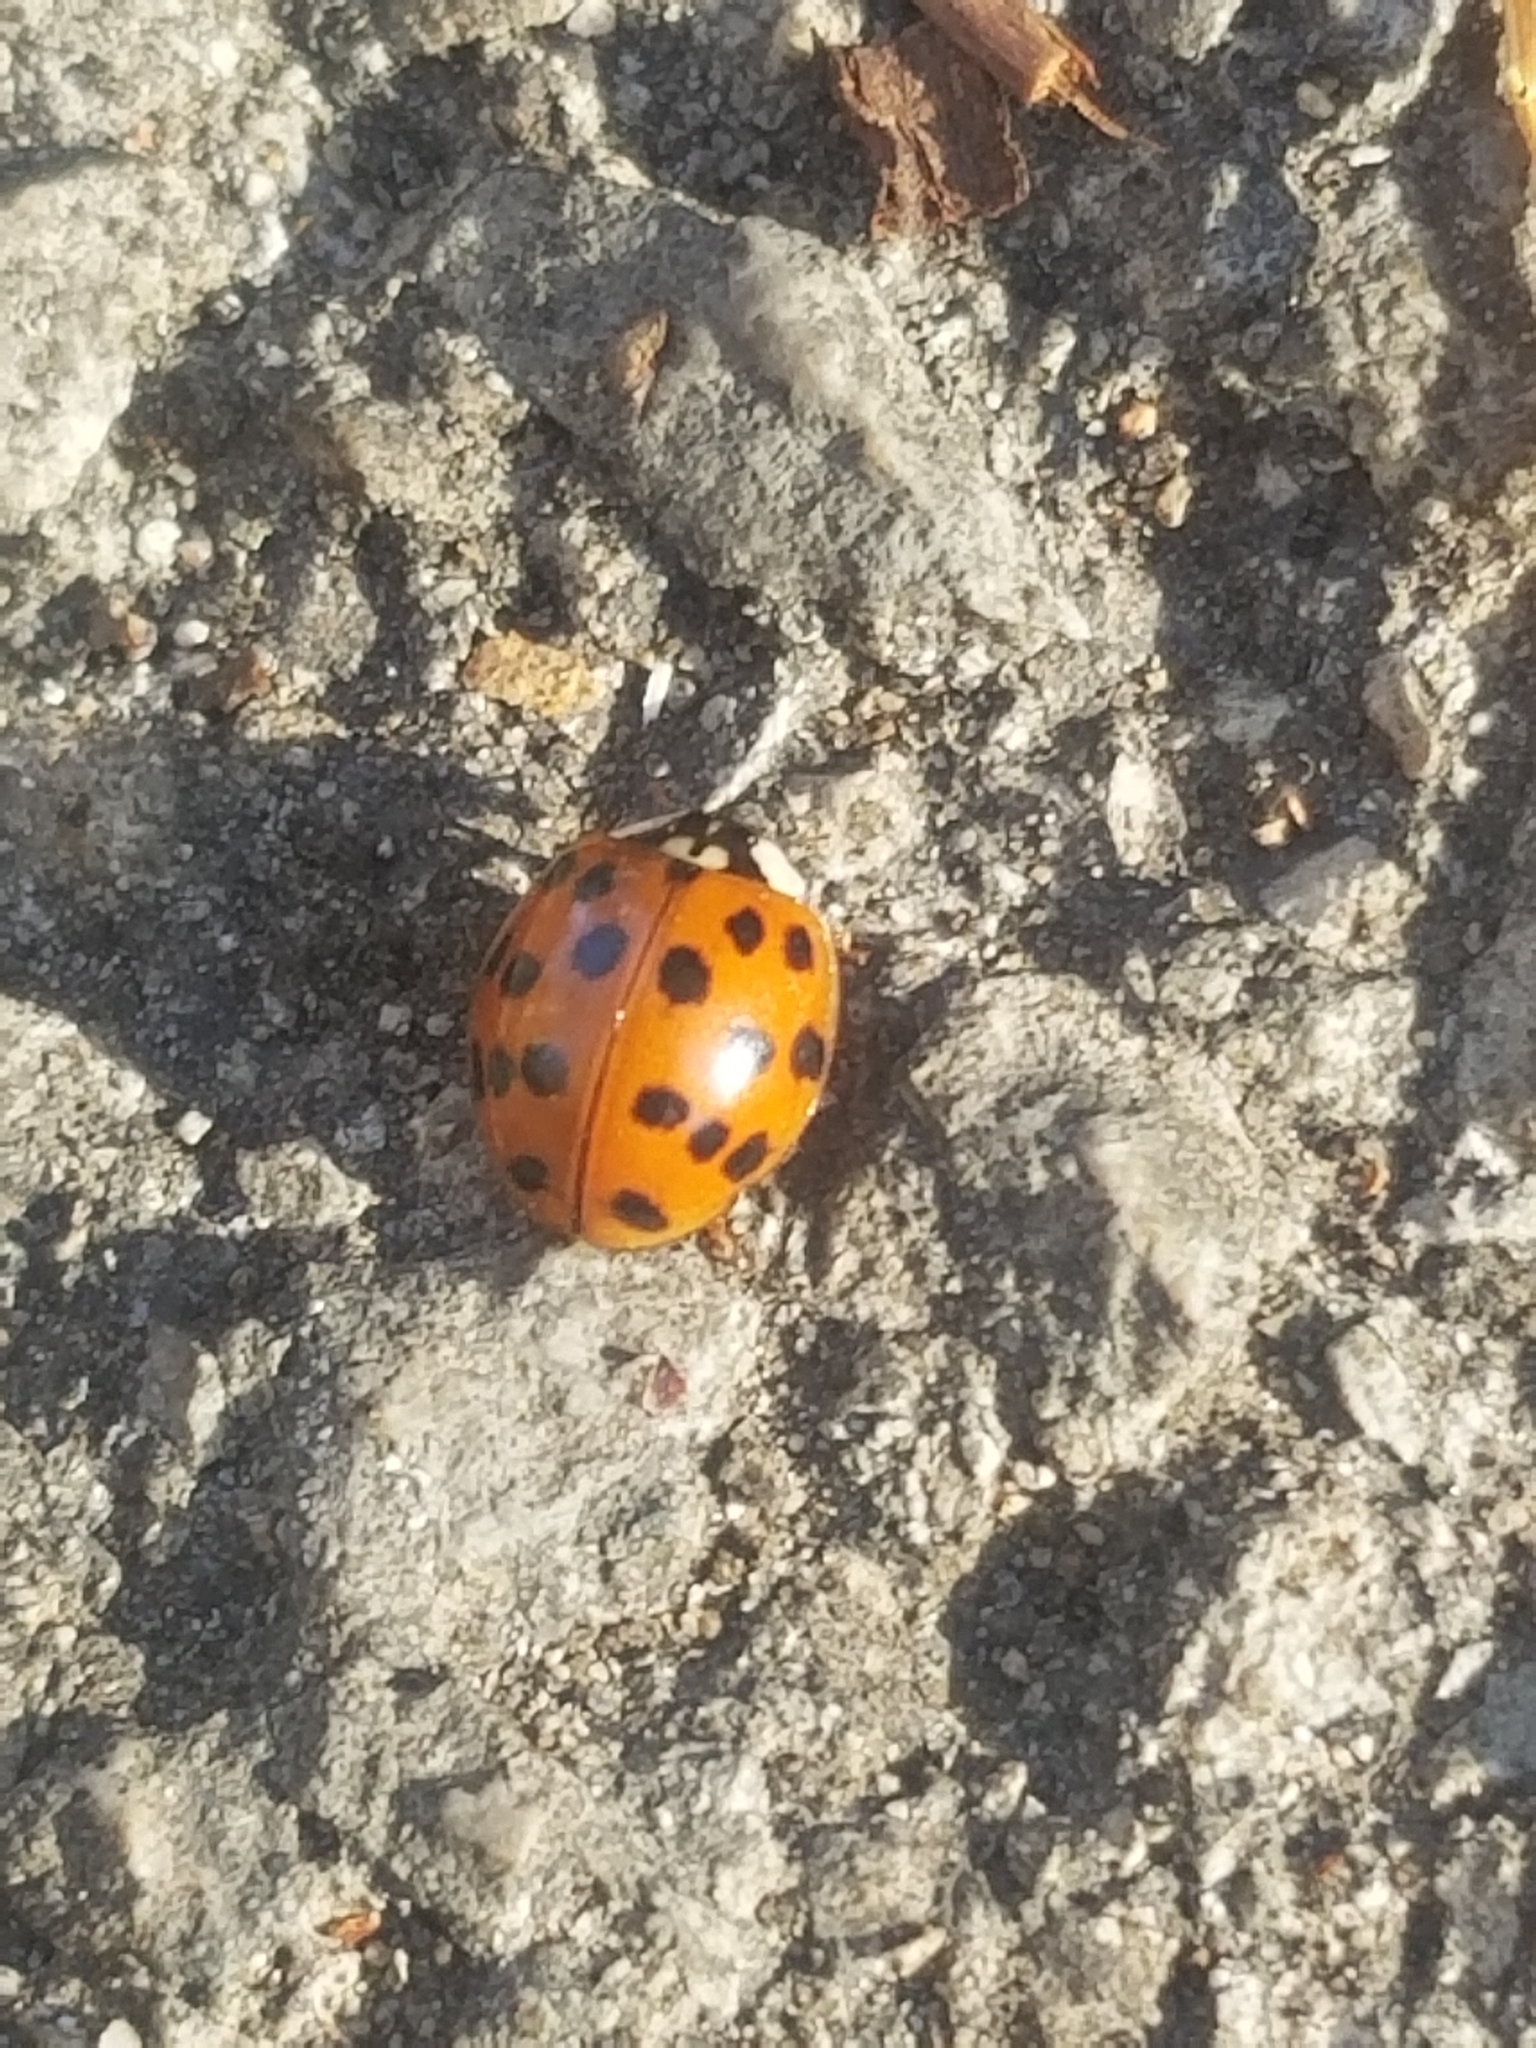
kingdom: Animalia
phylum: Arthropoda
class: Insecta
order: Coleoptera
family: Coccinellidae
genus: Harmonia
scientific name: Harmonia axyridis
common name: Harlequin ladybird
